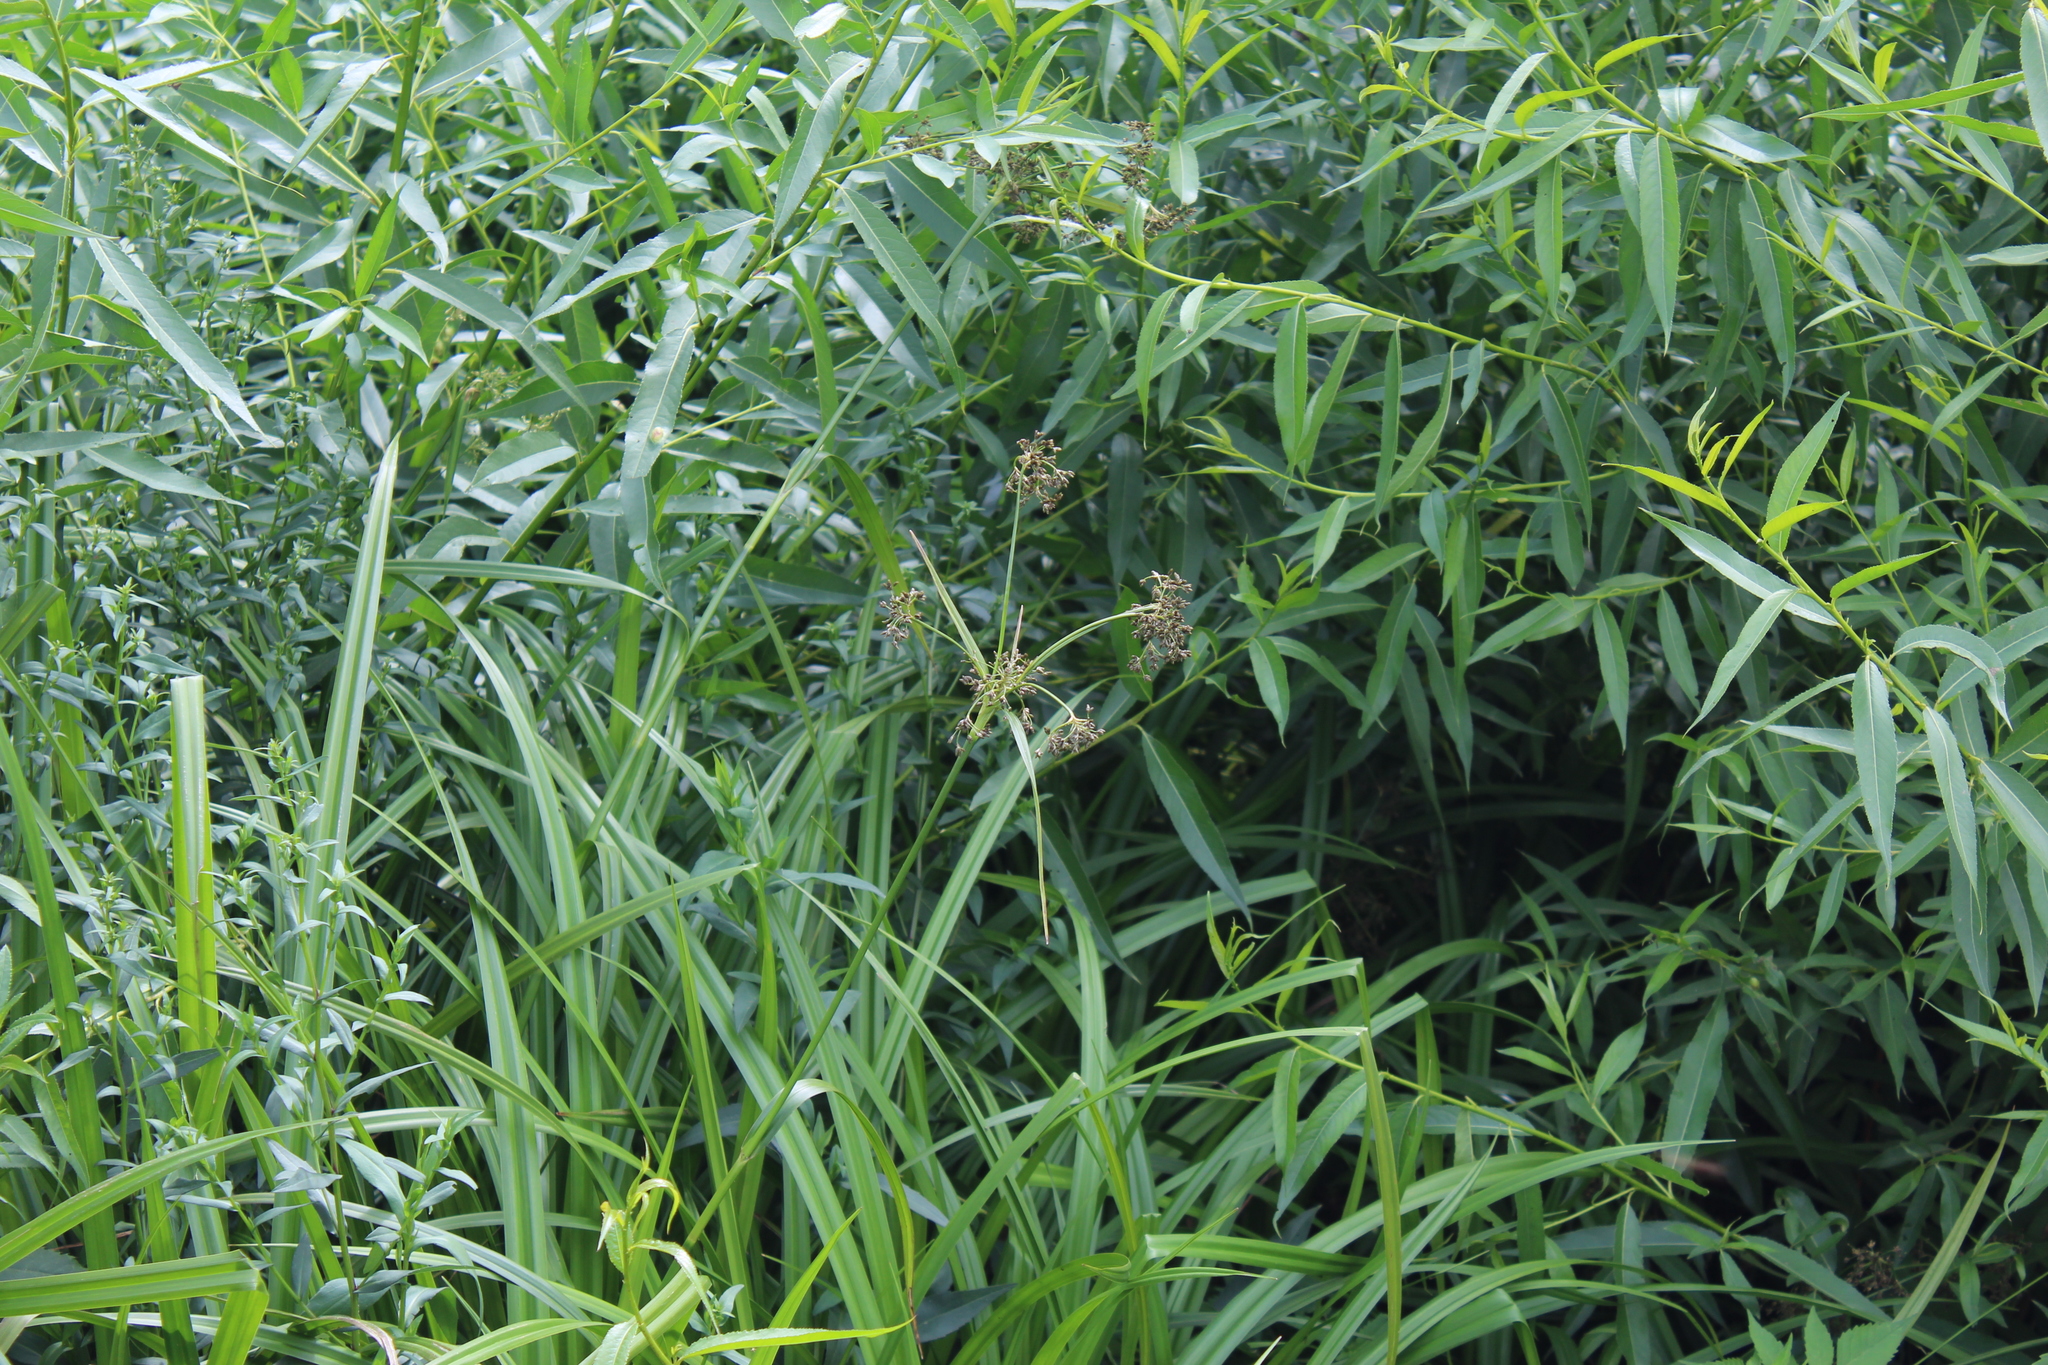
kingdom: Plantae
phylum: Tracheophyta
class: Liliopsida
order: Poales
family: Cyperaceae
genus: Scirpus
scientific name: Scirpus sylvaticus
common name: Wood club-rush
